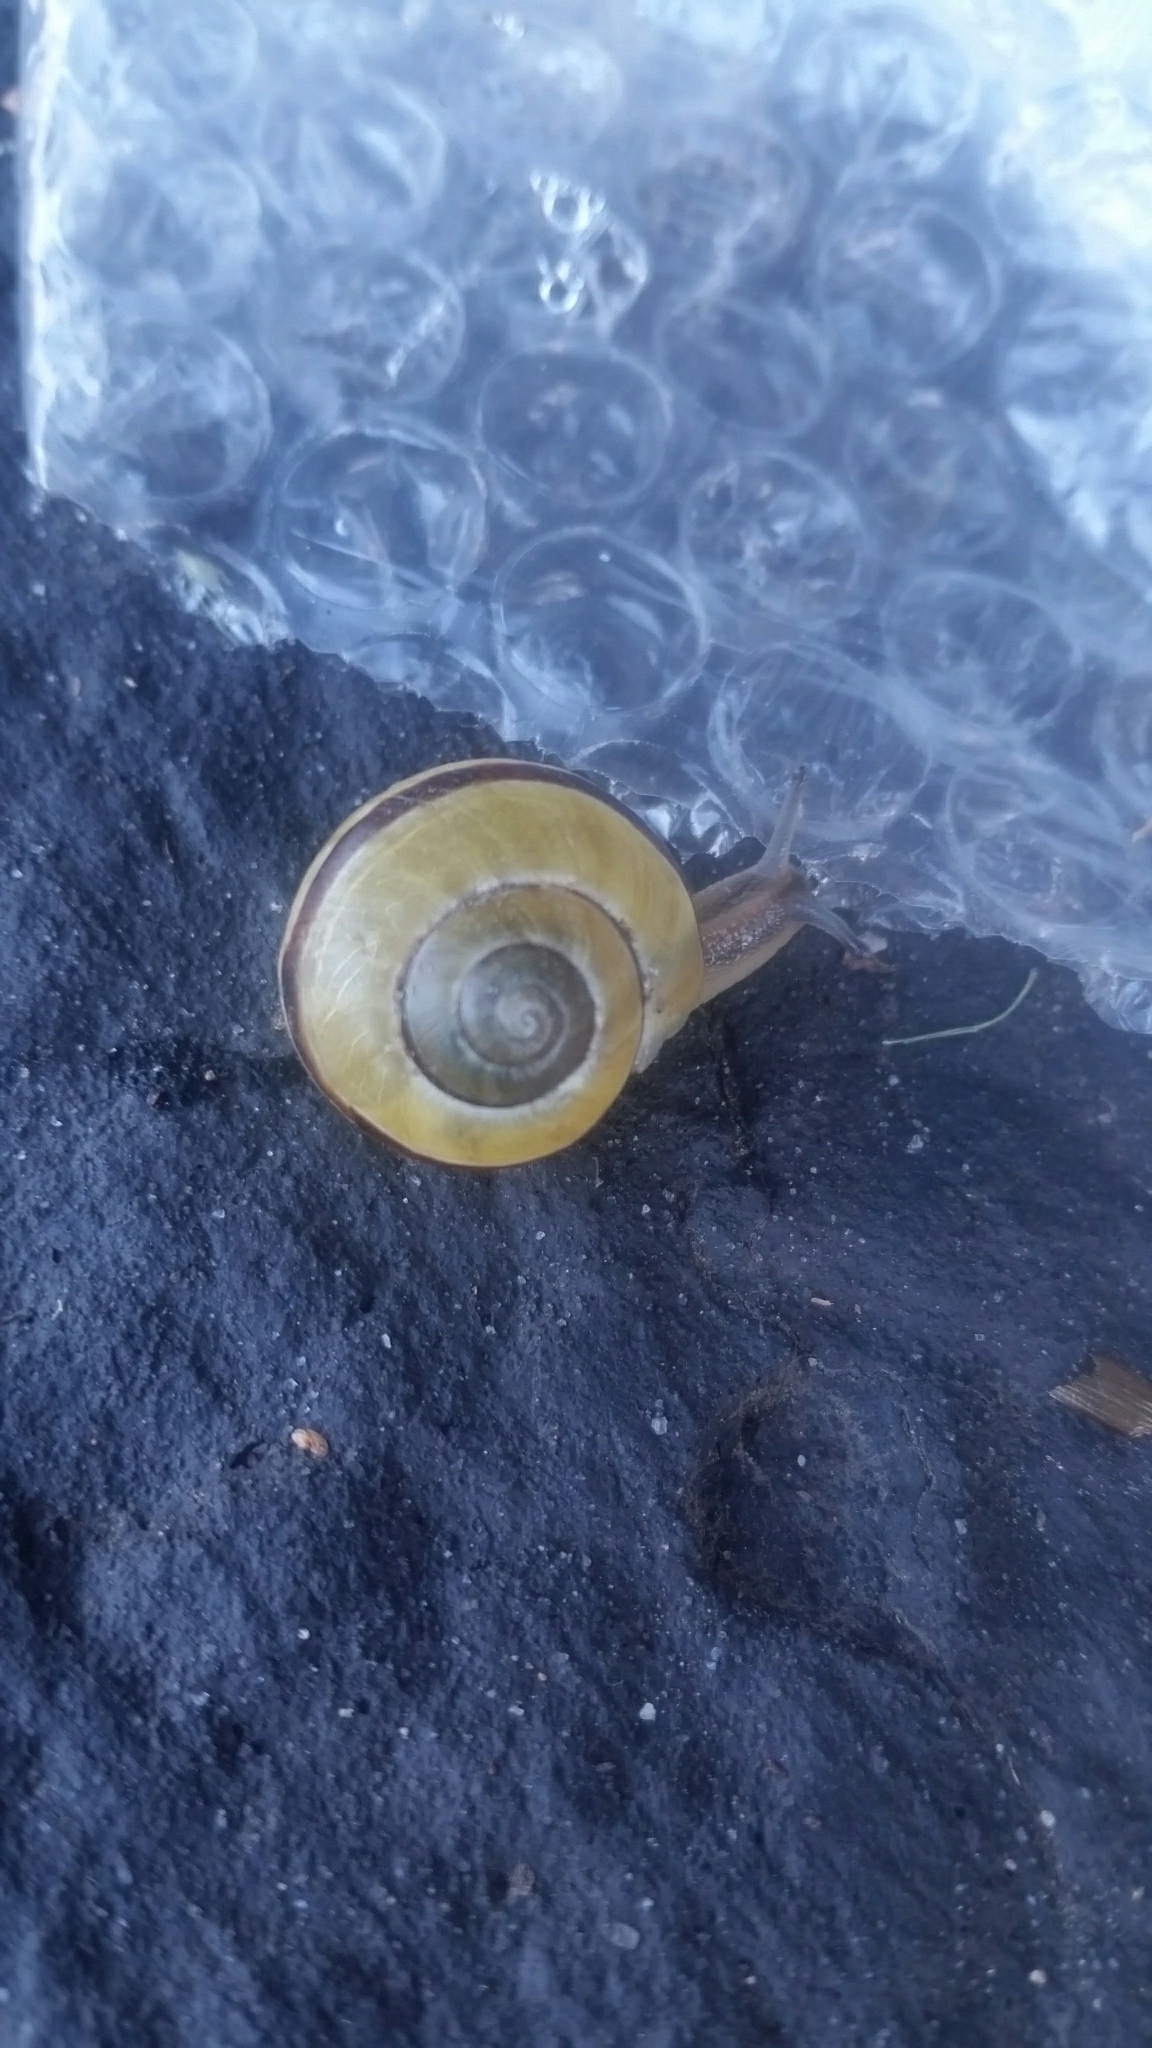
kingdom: Animalia
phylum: Mollusca
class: Gastropoda
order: Stylommatophora
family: Helicidae
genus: Cepaea
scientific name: Cepaea nemoralis
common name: Grovesnail
